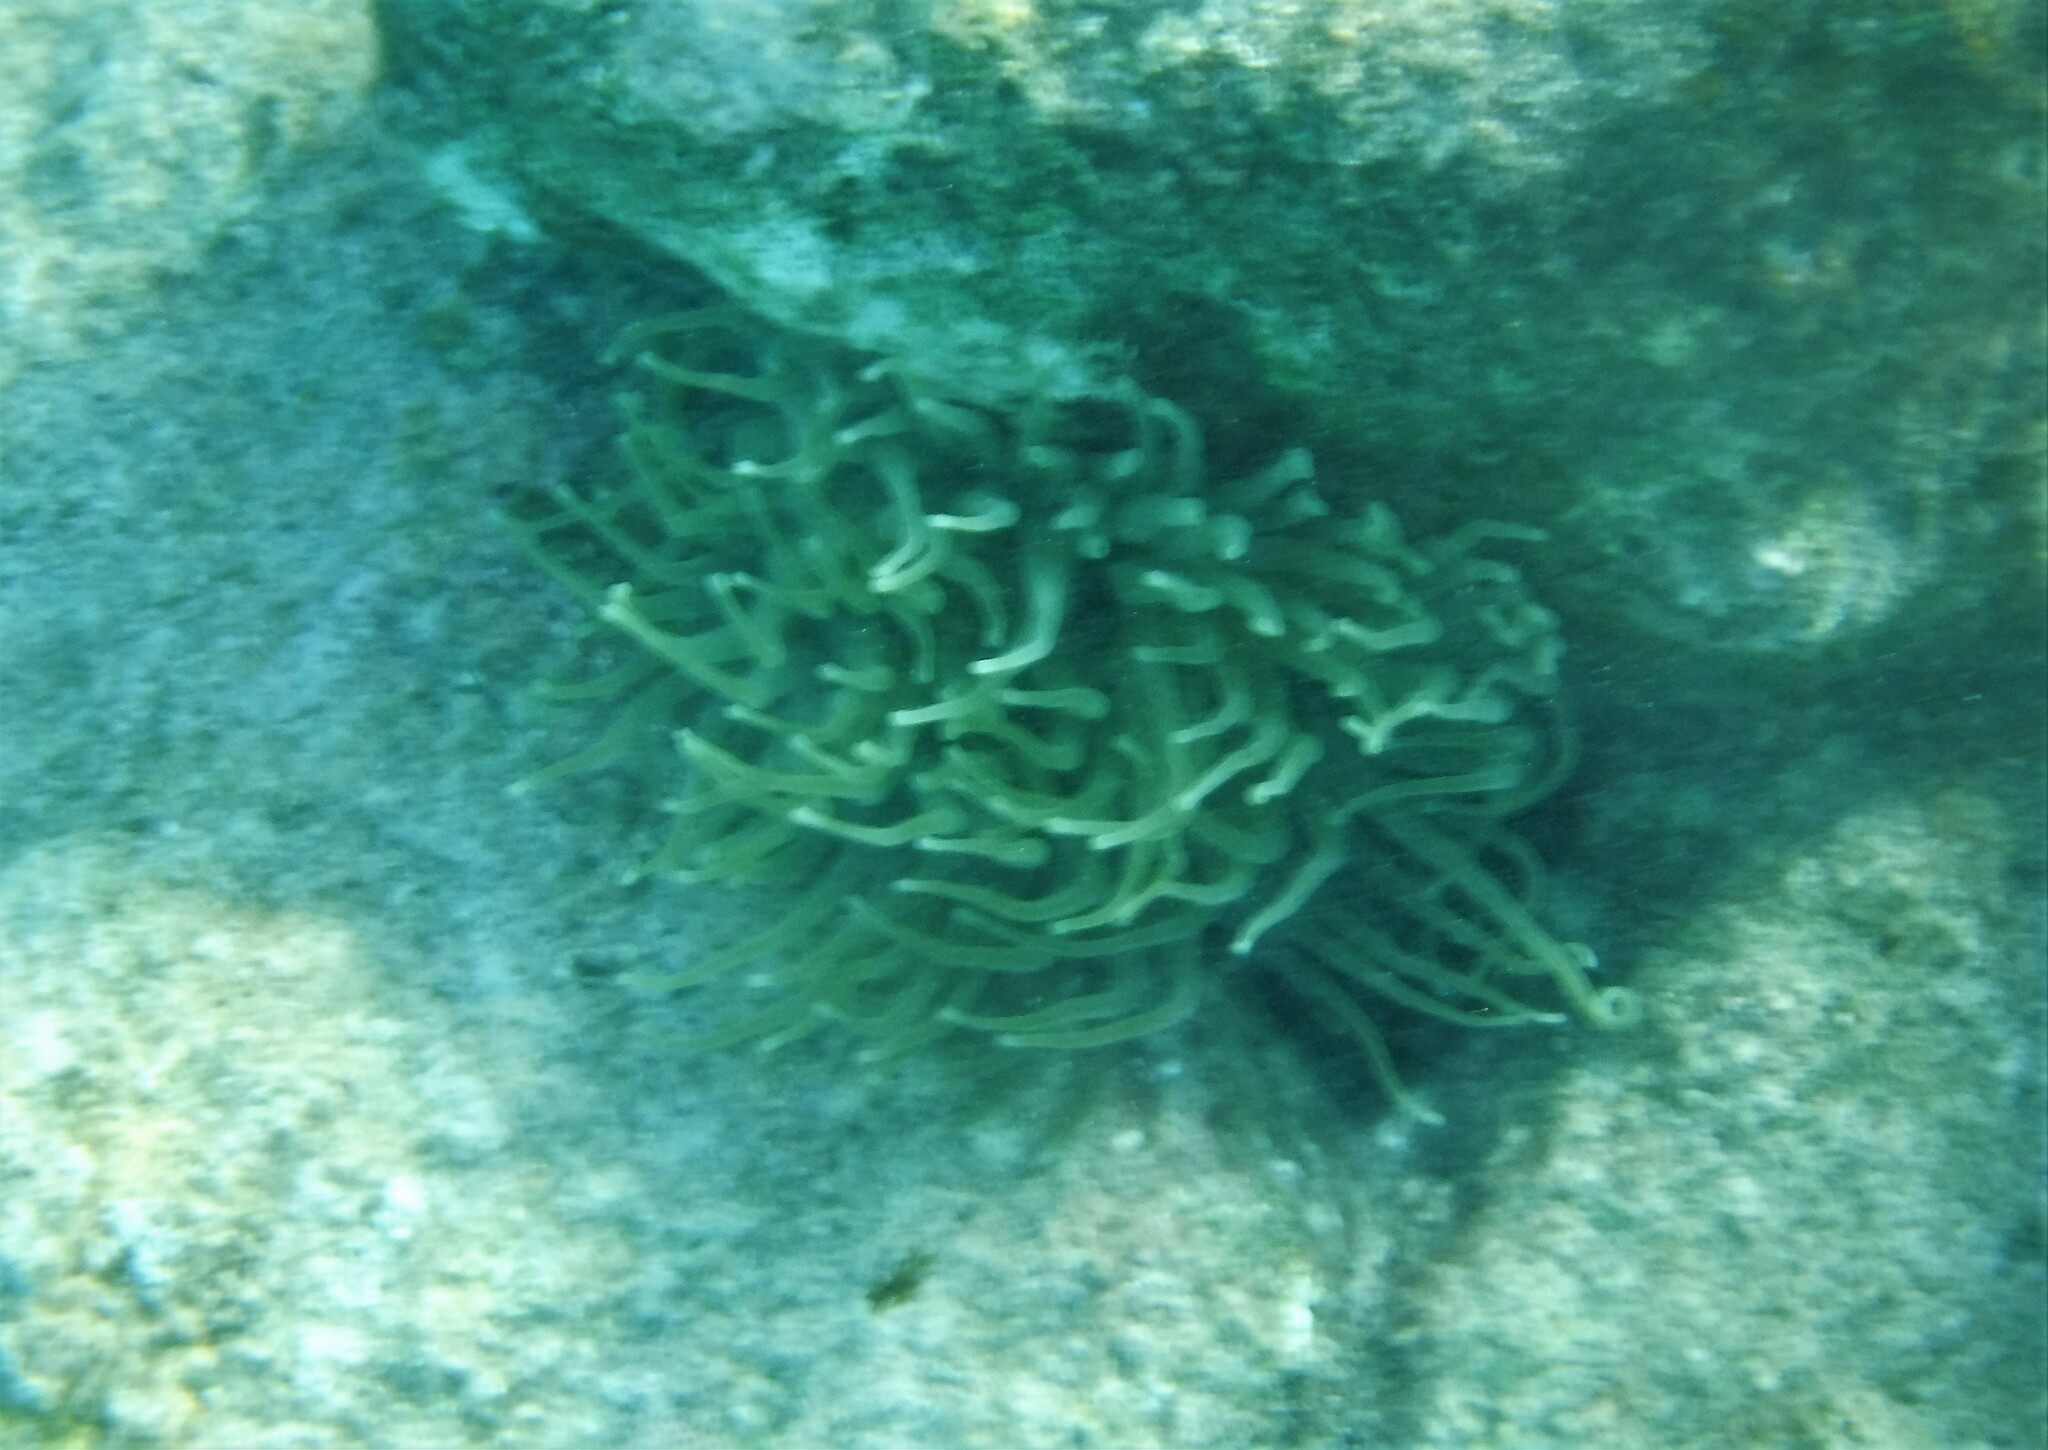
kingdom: Animalia
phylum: Cnidaria
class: Anthozoa
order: Actiniaria
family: Actiniidae
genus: Condylactis
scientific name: Condylactis gigantea
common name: Giant caribbean anemone
